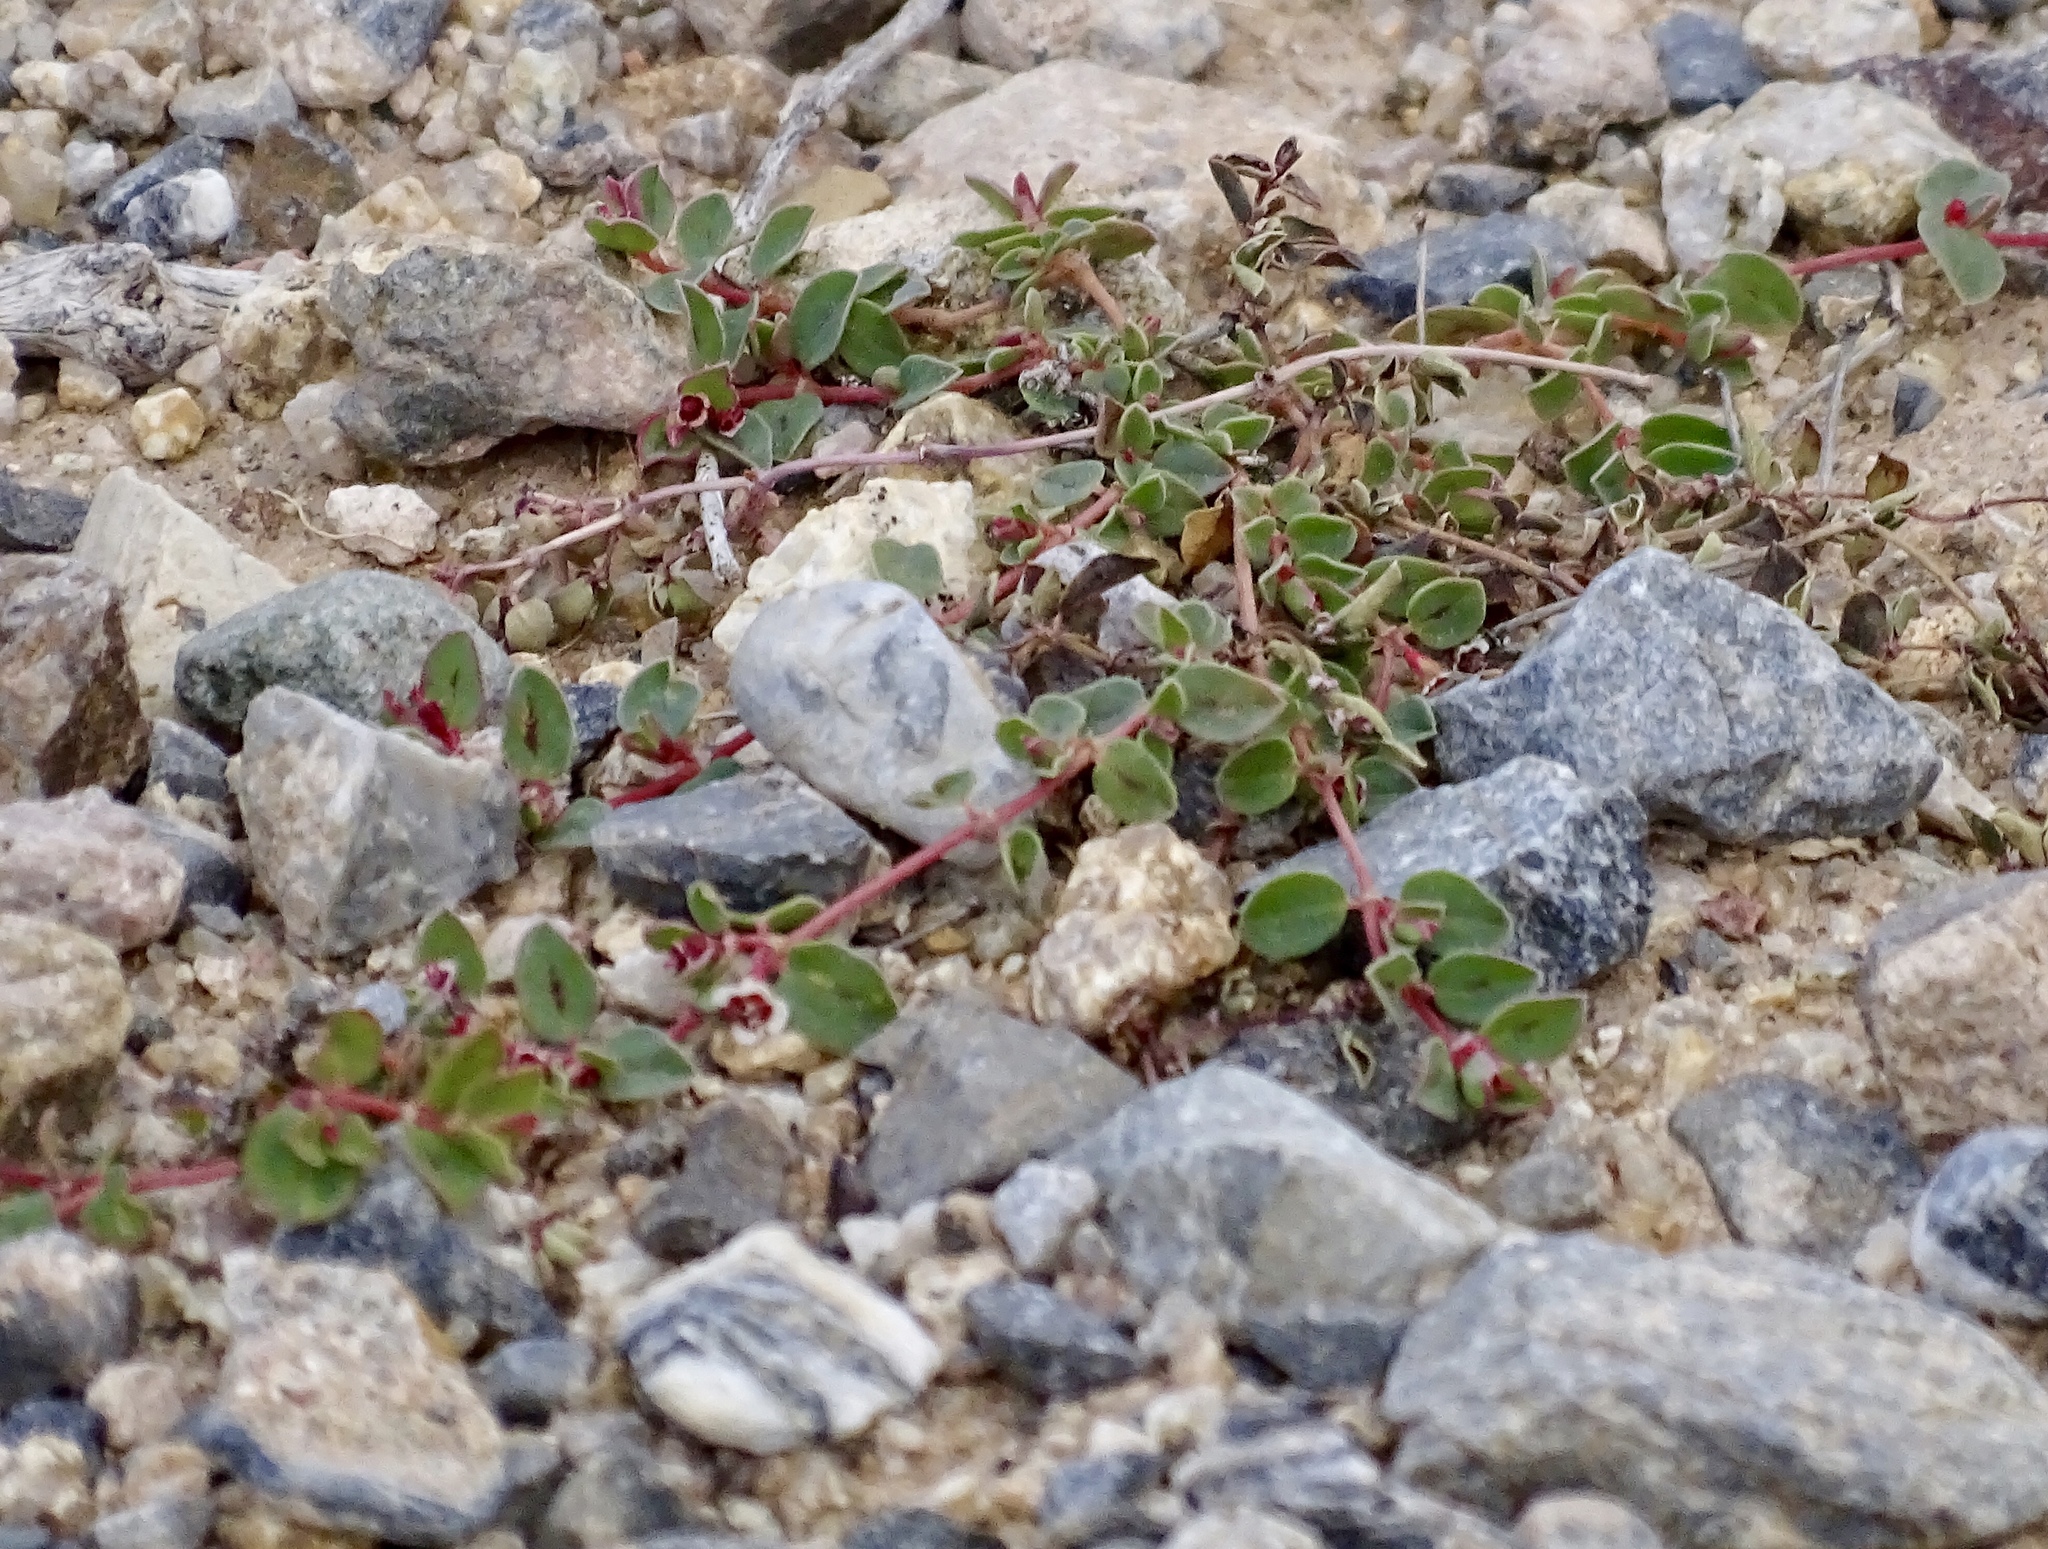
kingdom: Plantae
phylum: Tracheophyta
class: Magnoliopsida
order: Malpighiales
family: Euphorbiaceae
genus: Euphorbia
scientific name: Euphorbia albomarginata
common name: Whitemargin sandmat
